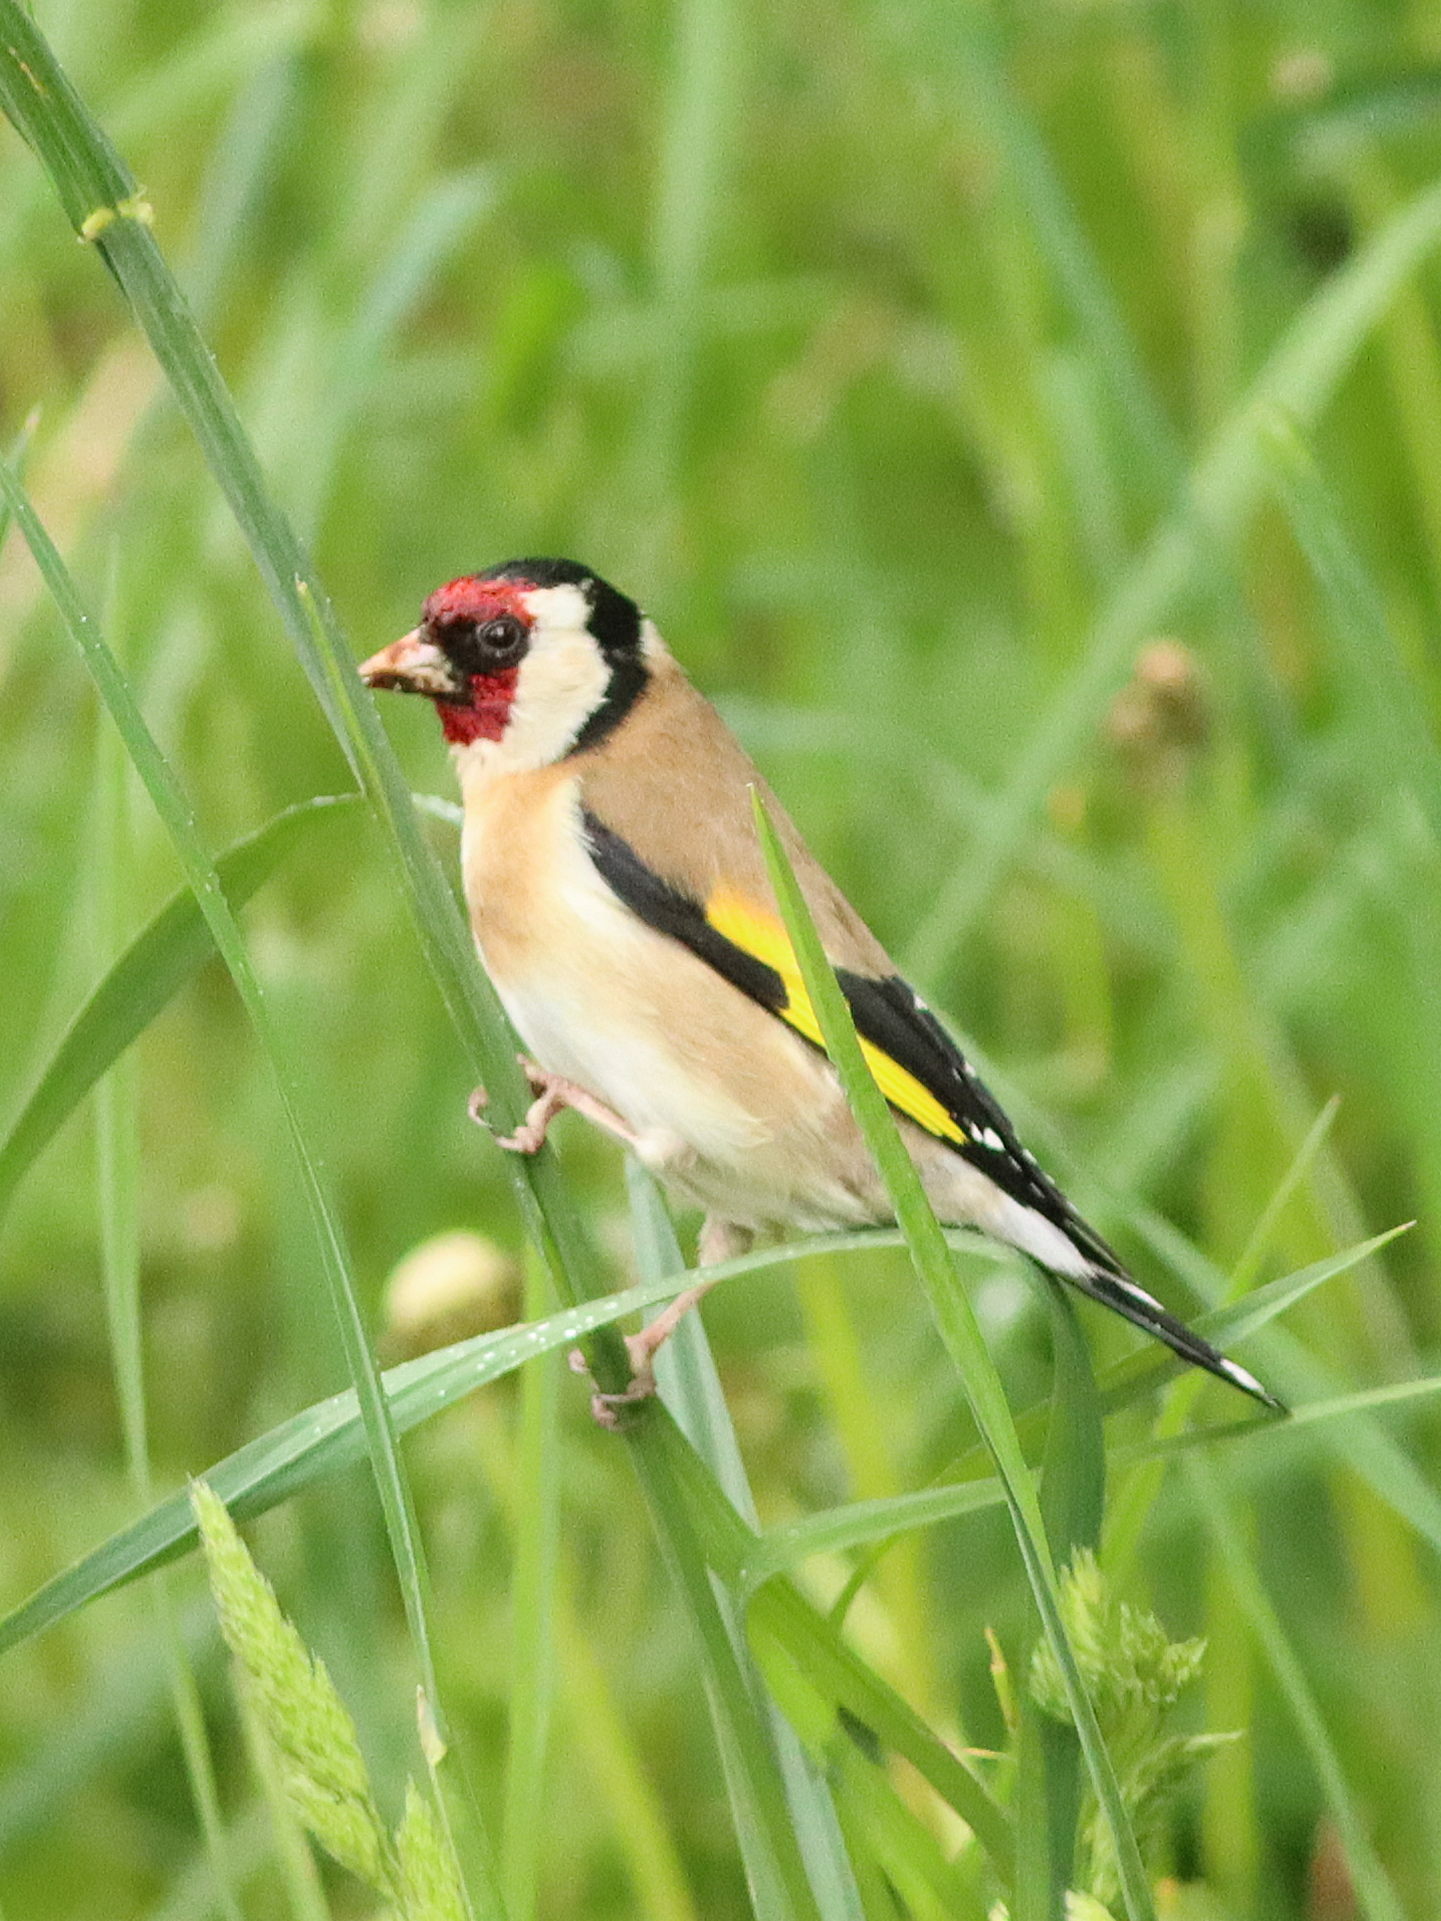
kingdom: Animalia
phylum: Chordata
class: Aves
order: Passeriformes
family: Fringillidae
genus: Carduelis
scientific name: Carduelis carduelis
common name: European goldfinch
